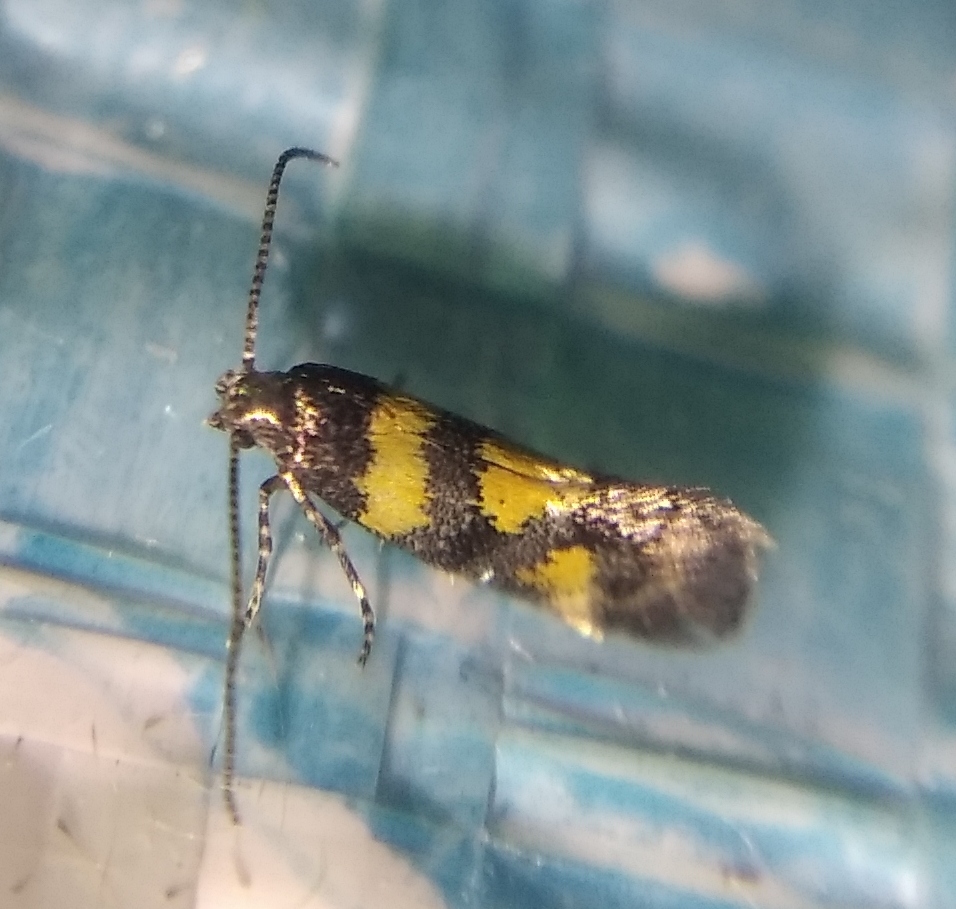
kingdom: Animalia
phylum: Arthropoda
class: Insecta
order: Lepidoptera
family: Gelechiidae
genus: Chrysoesthia
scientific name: Chrysoesthia sexguttella
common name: Moth
